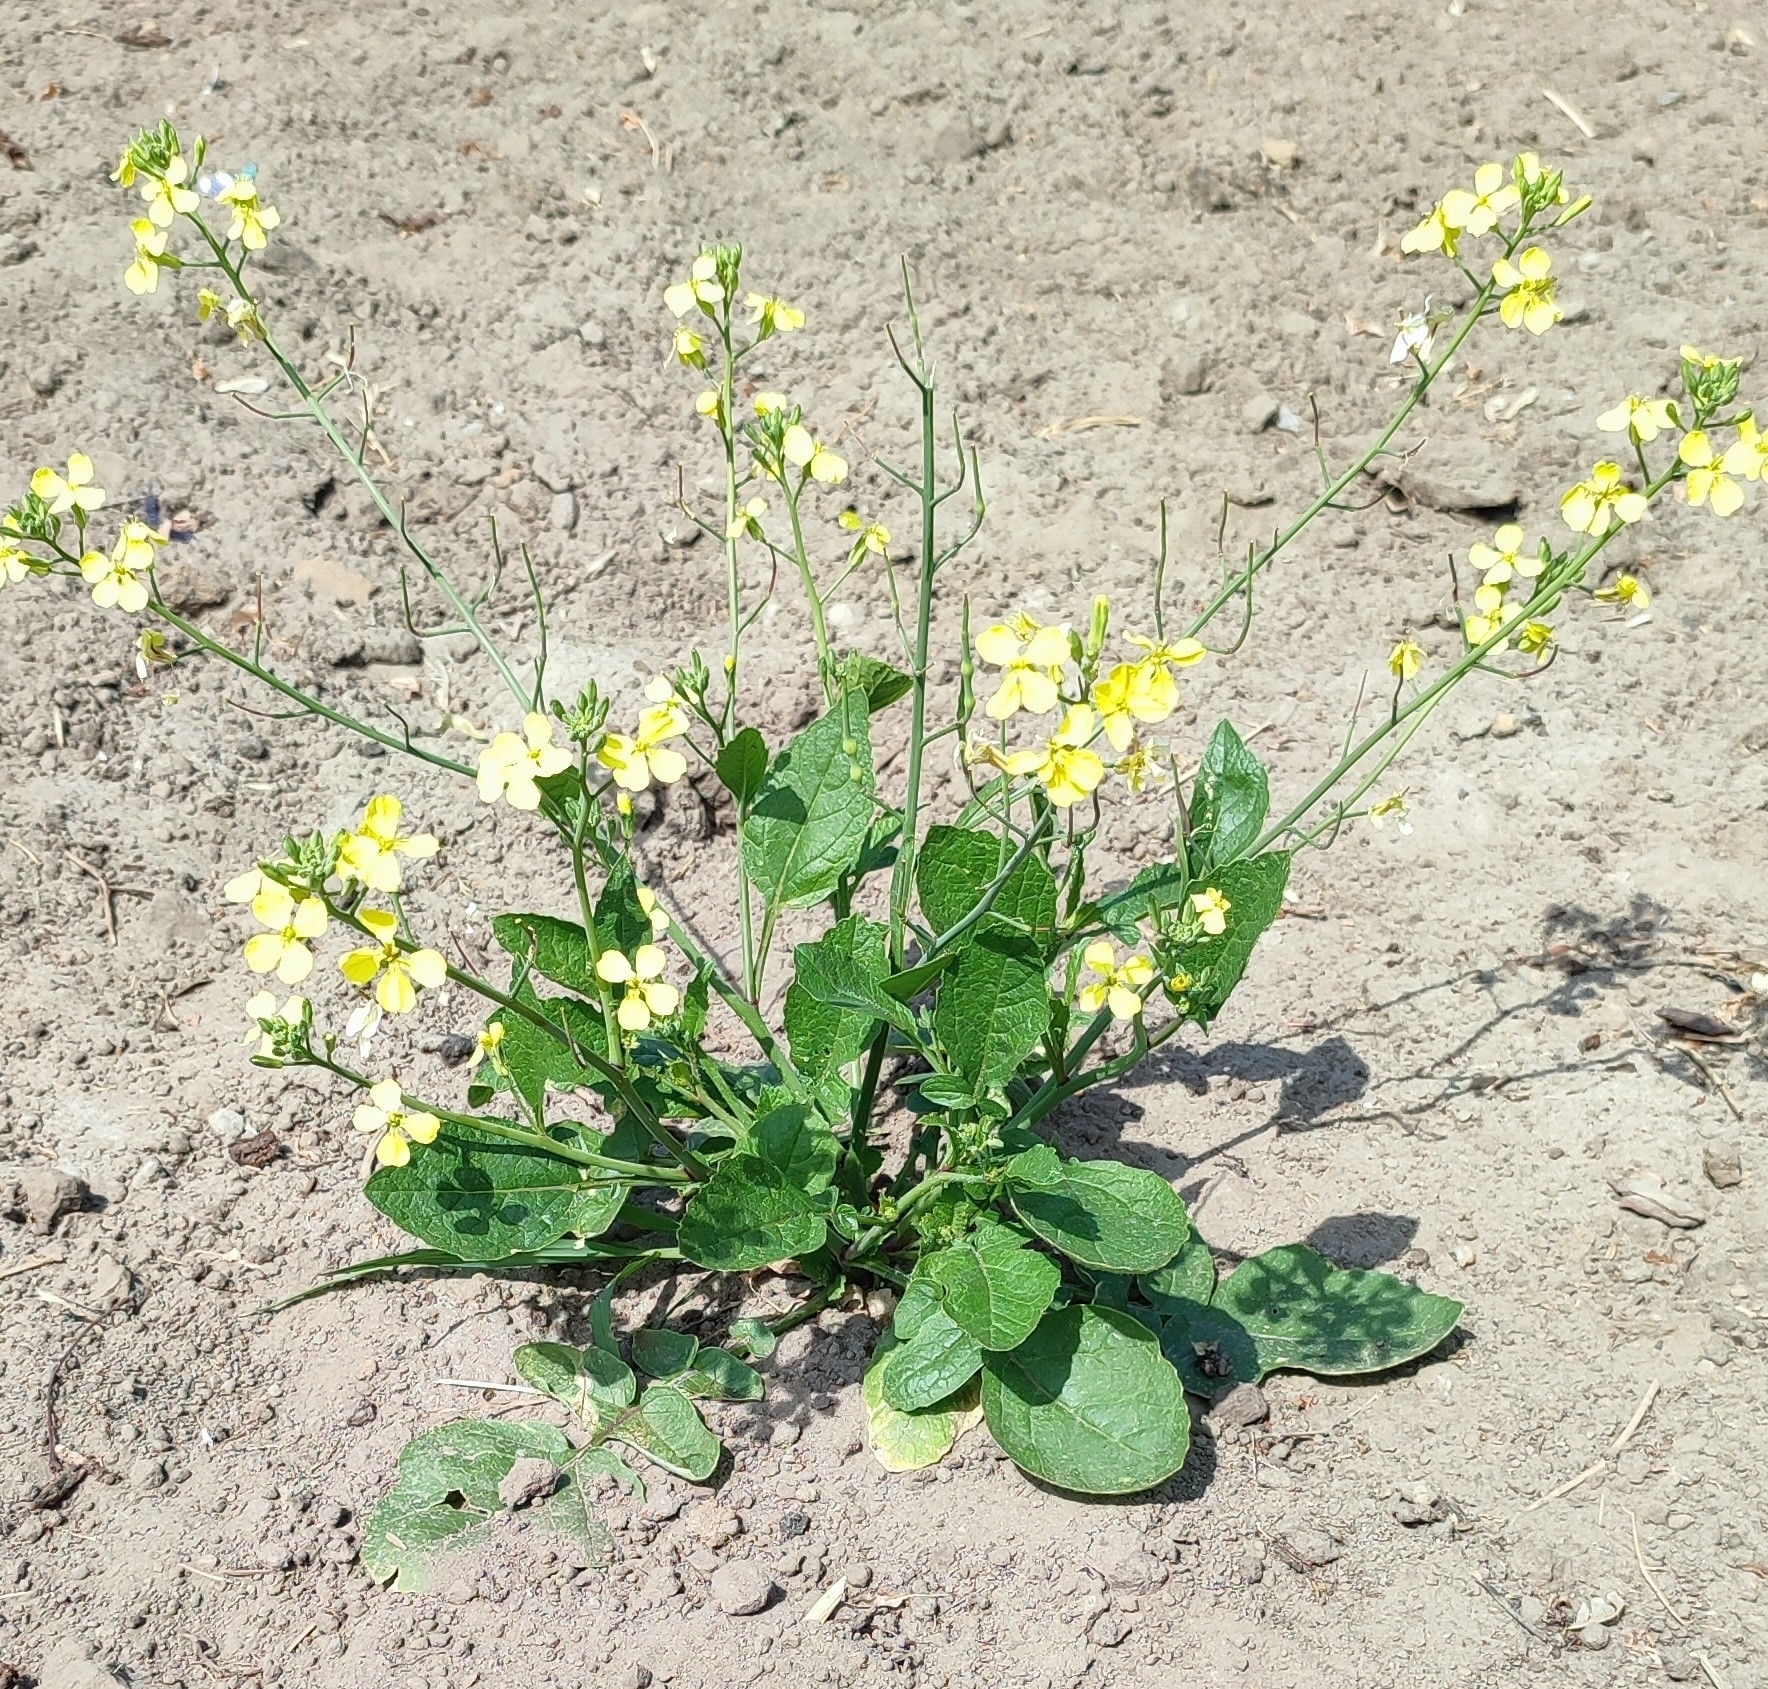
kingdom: Plantae
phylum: Tracheophyta
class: Magnoliopsida
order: Brassicales
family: Brassicaceae
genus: Raphanus
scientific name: Raphanus raphanistrum
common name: Wild radish
